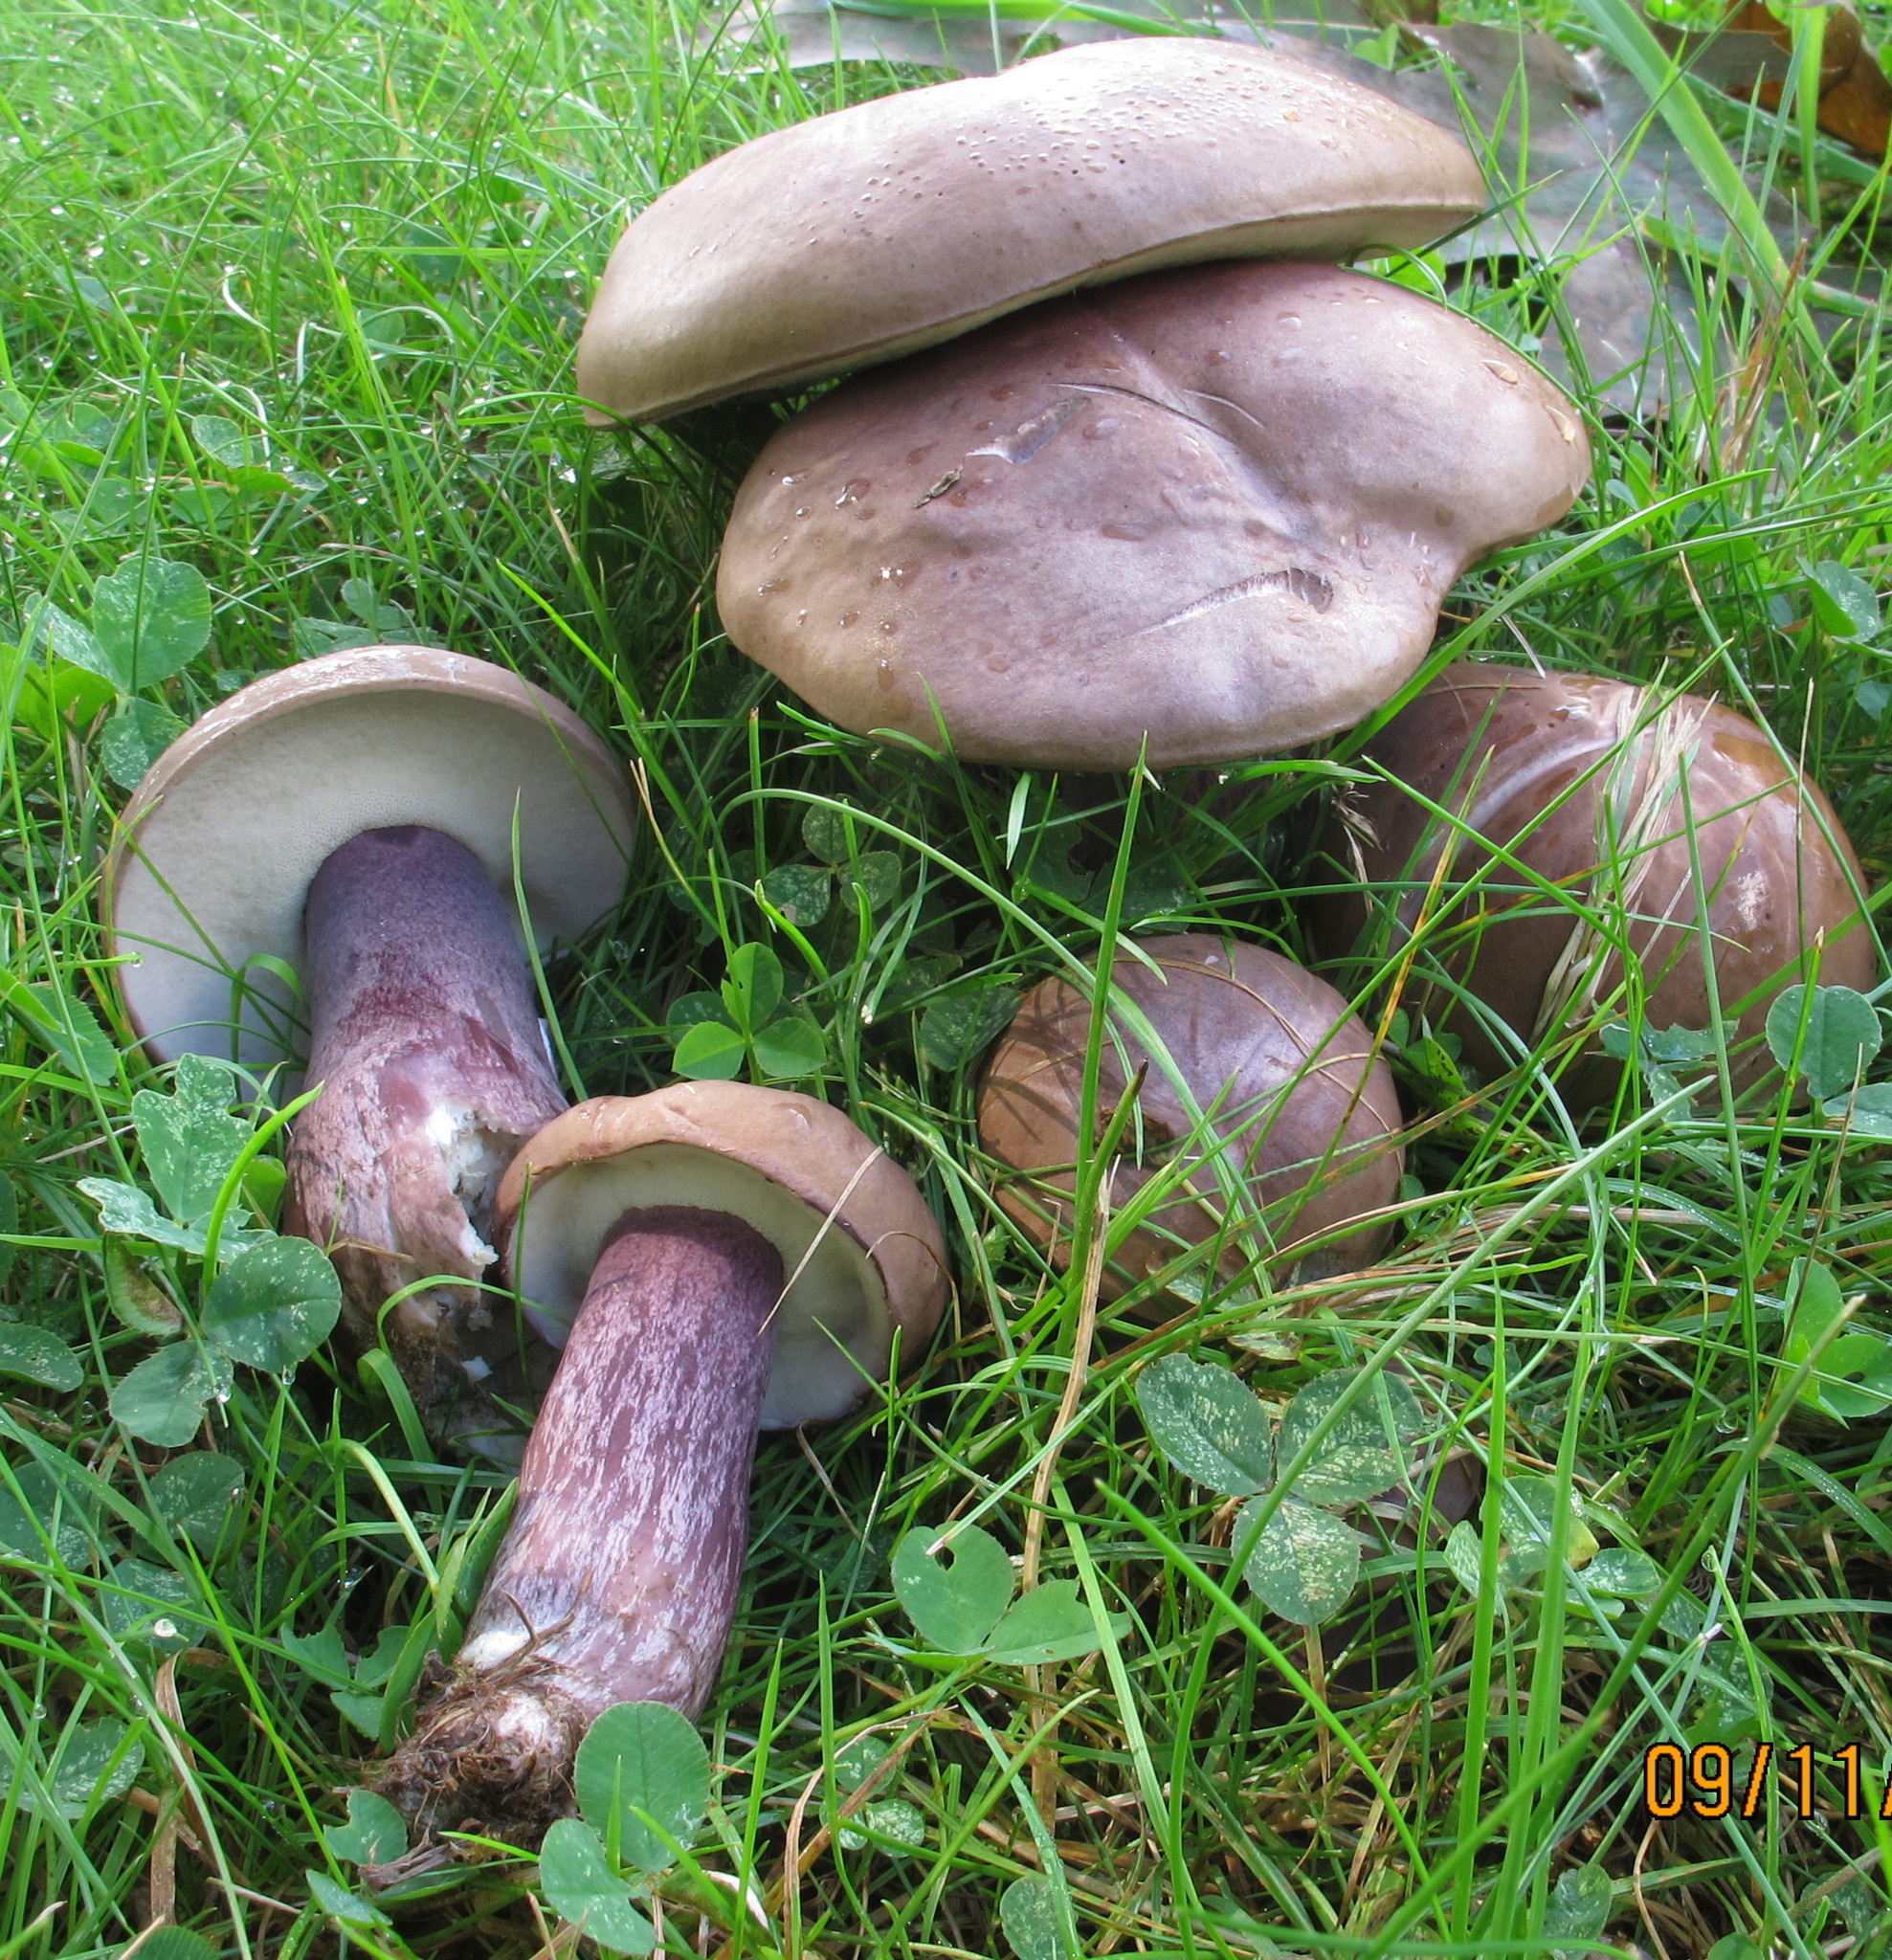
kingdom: Fungi
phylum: Basidiomycota
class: Agaricomycetes
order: Boletales
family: Boletaceae
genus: Tylopilus
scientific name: Tylopilus plumbeoviolaceus
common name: Violet gray bolete
